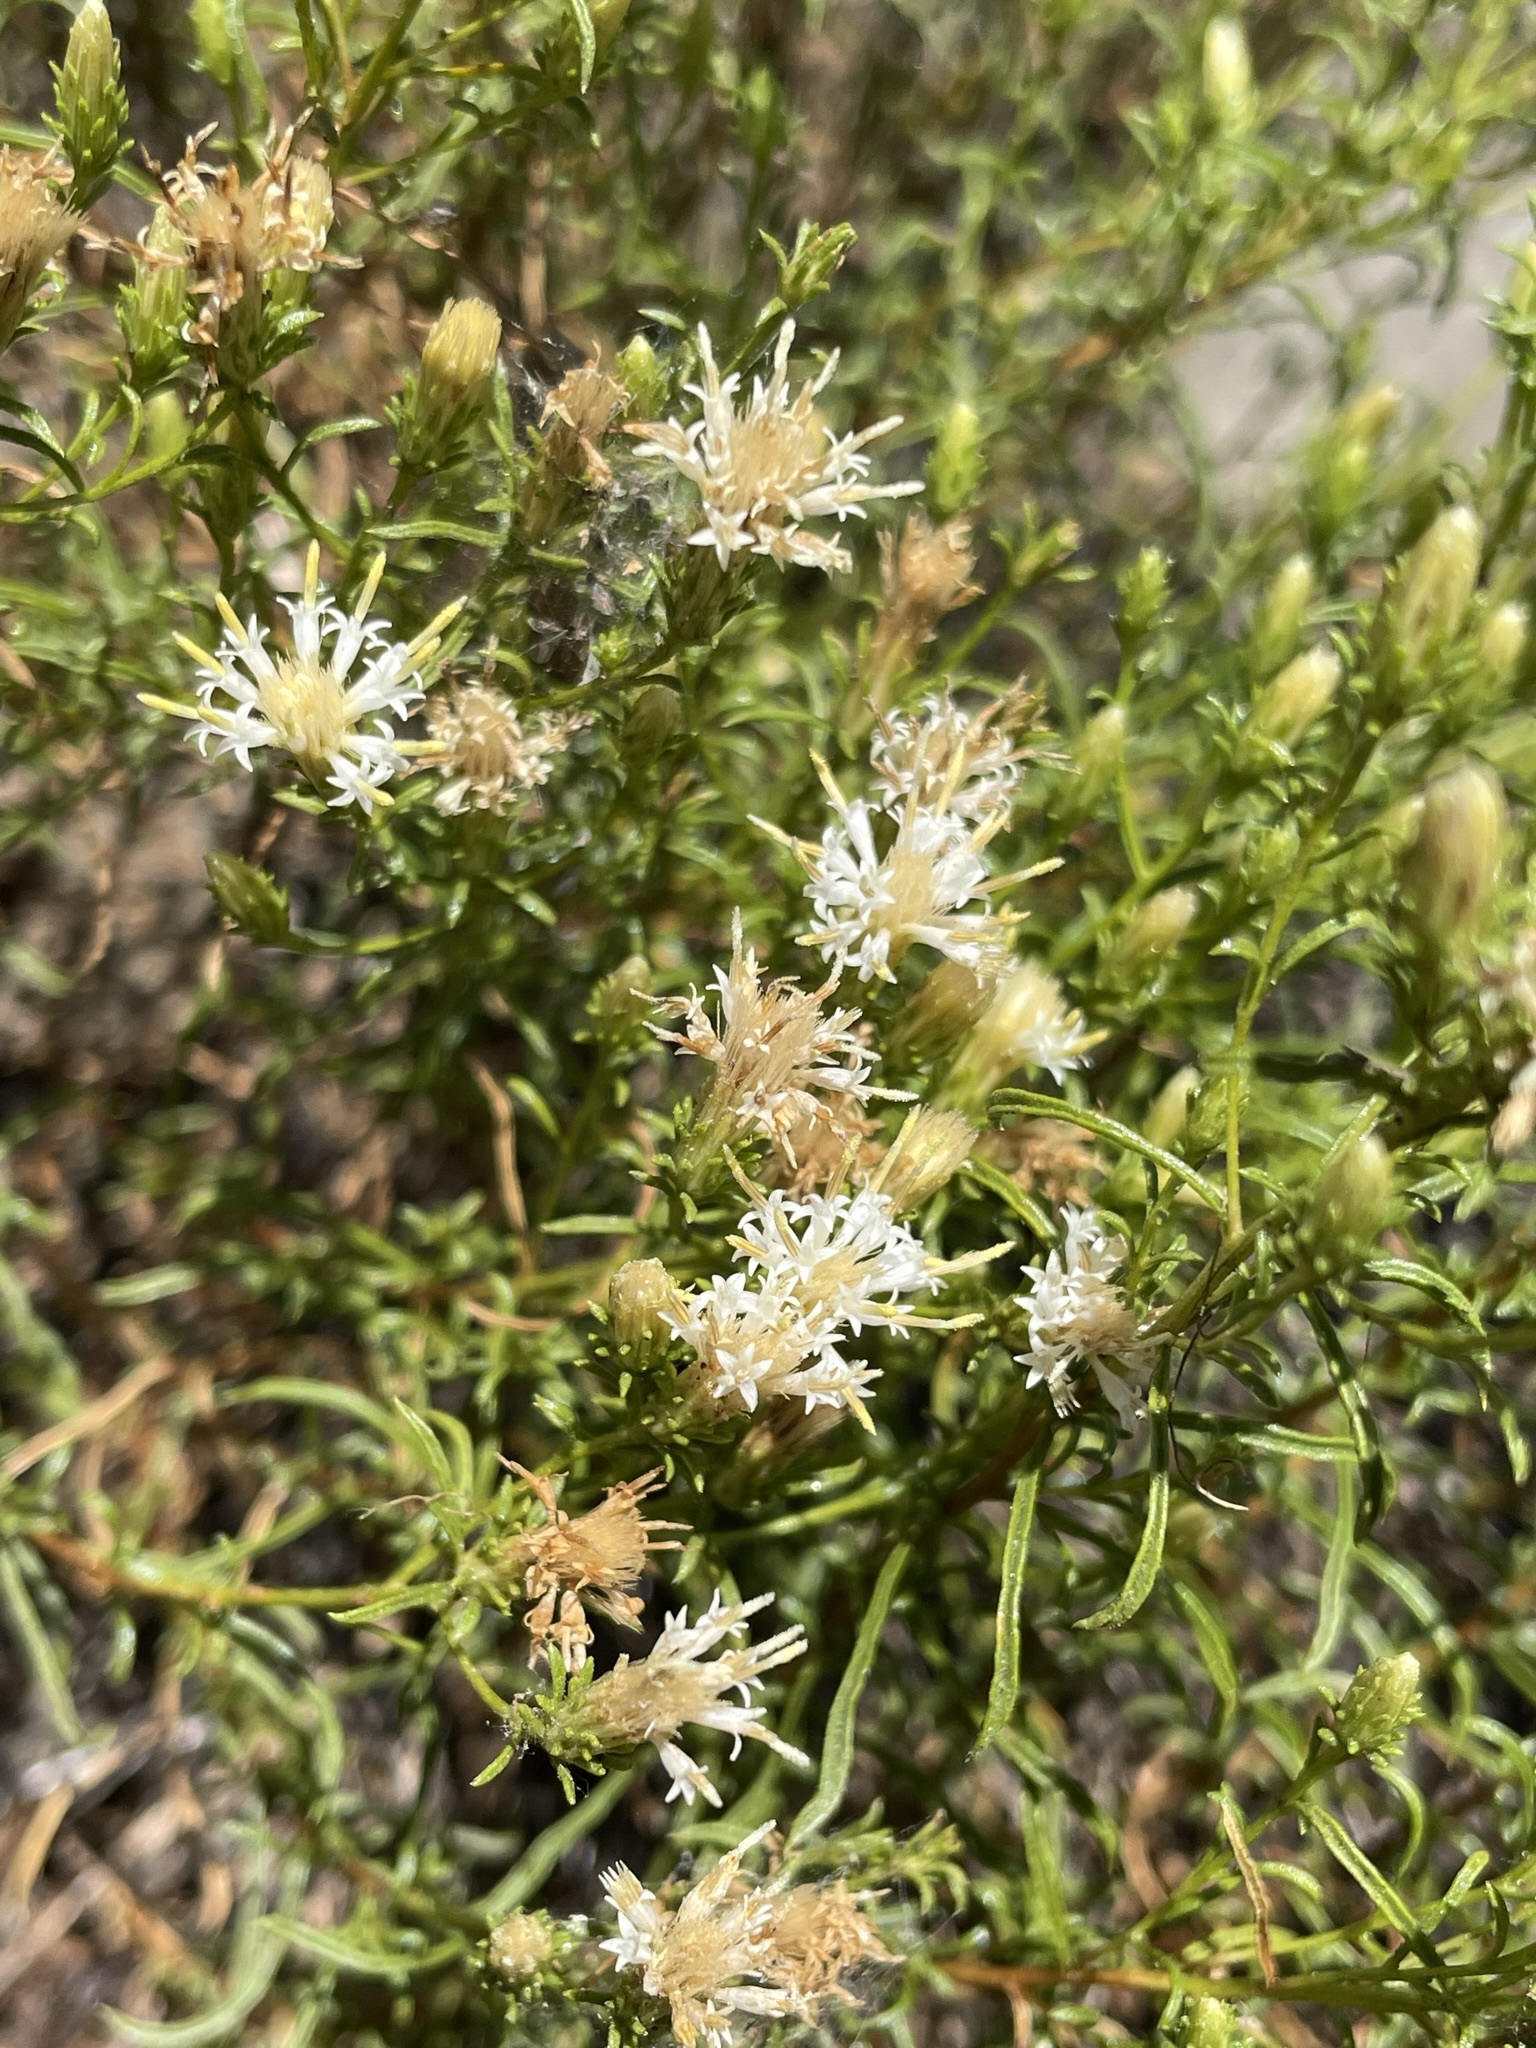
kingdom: Plantae
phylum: Tracheophyta
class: Magnoliopsida
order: Asterales
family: Asteraceae
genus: Ericameria
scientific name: Ericameria resinosa
